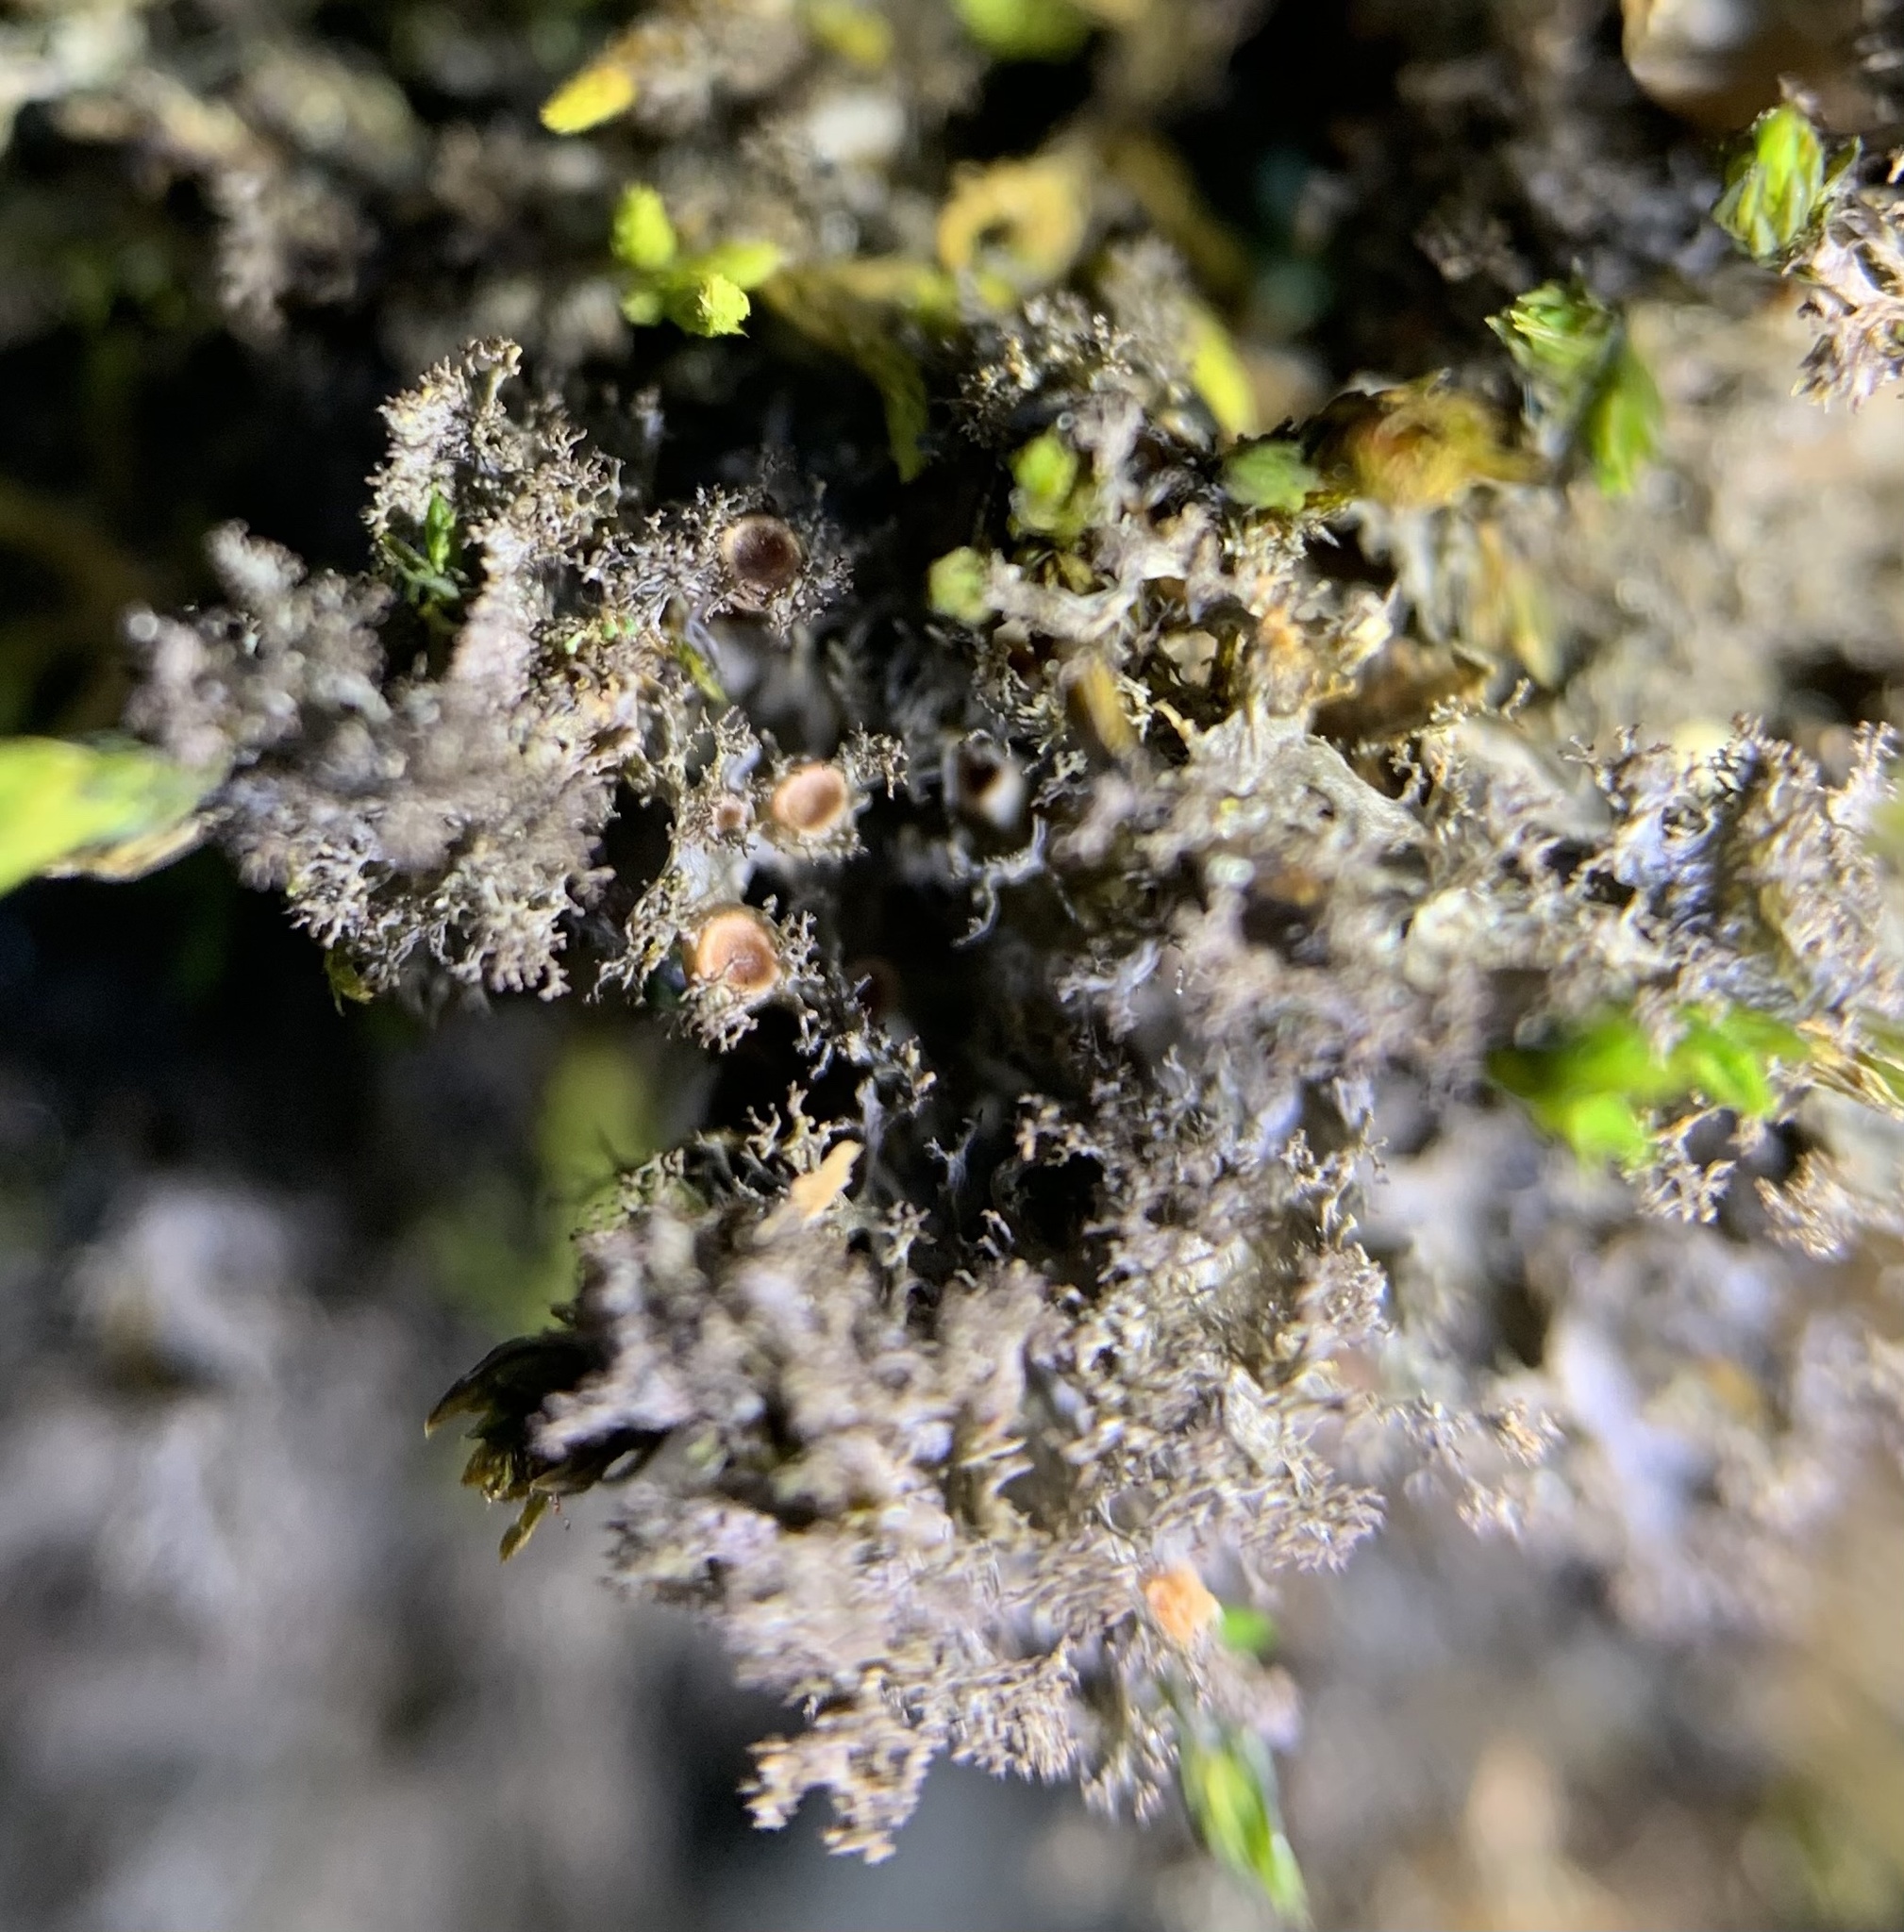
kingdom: Fungi
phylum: Ascomycota
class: Lecanoromycetes
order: Peltigerales
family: Collemataceae
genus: Scytinium
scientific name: Scytinium lichenoides
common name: Tattered jellyskin lichen
